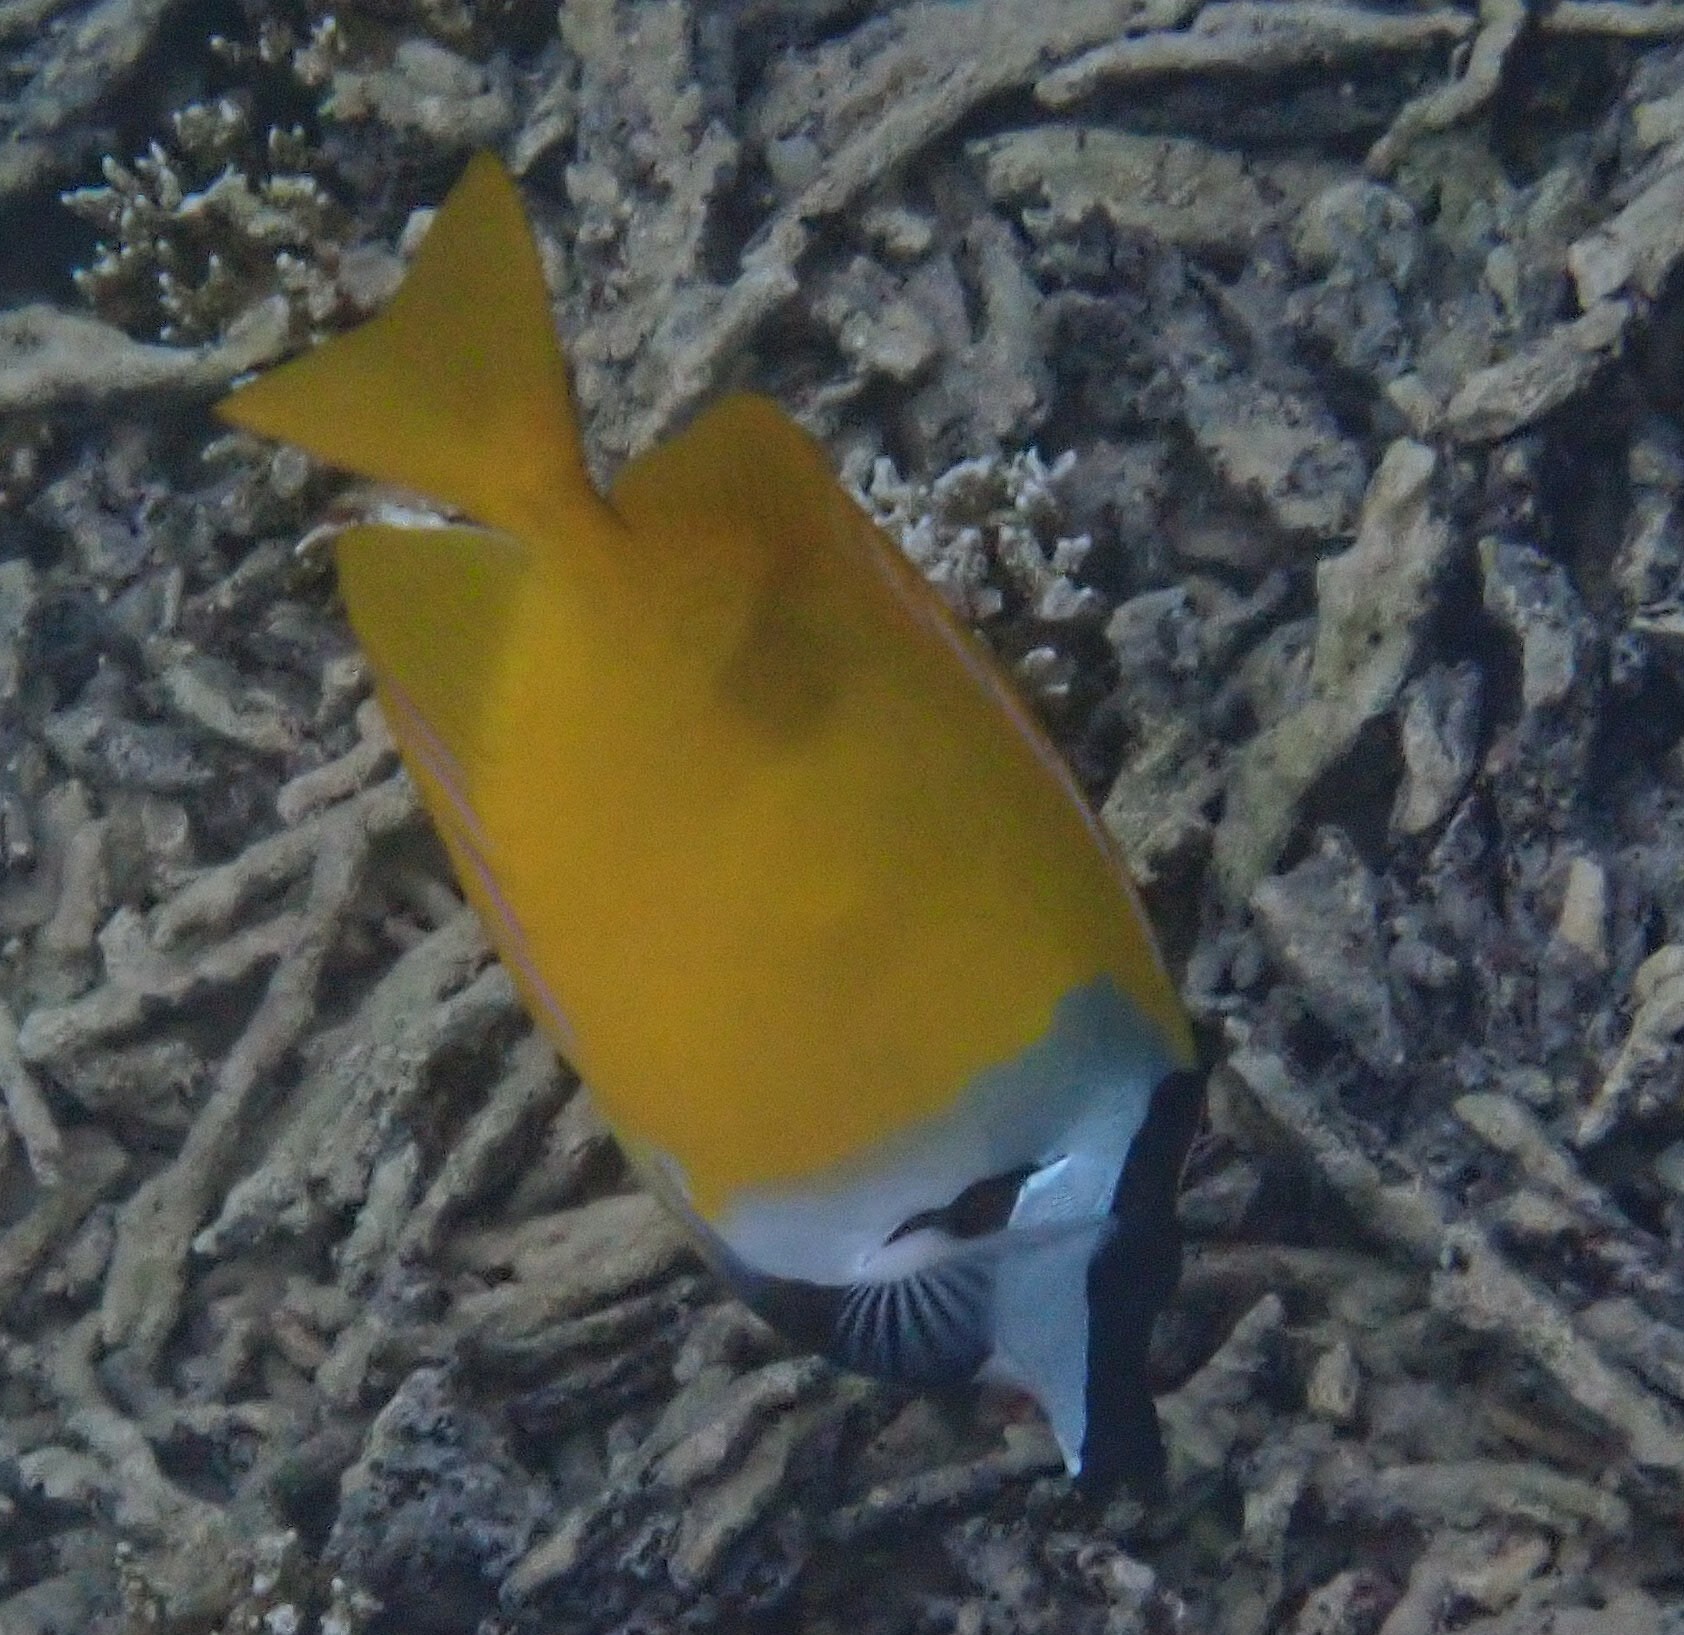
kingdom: Animalia
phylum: Chordata
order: Perciformes
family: Siganidae
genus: Siganus
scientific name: Siganus vulpinus
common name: Foxface
